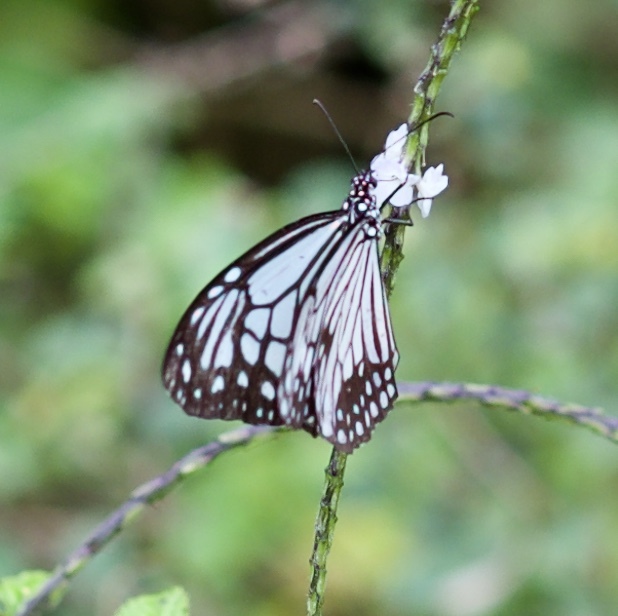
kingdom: Animalia
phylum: Arthropoda
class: Insecta
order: Lepidoptera
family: Nymphalidae
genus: Parantica
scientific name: Parantica aglea
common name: Glassy tiger
